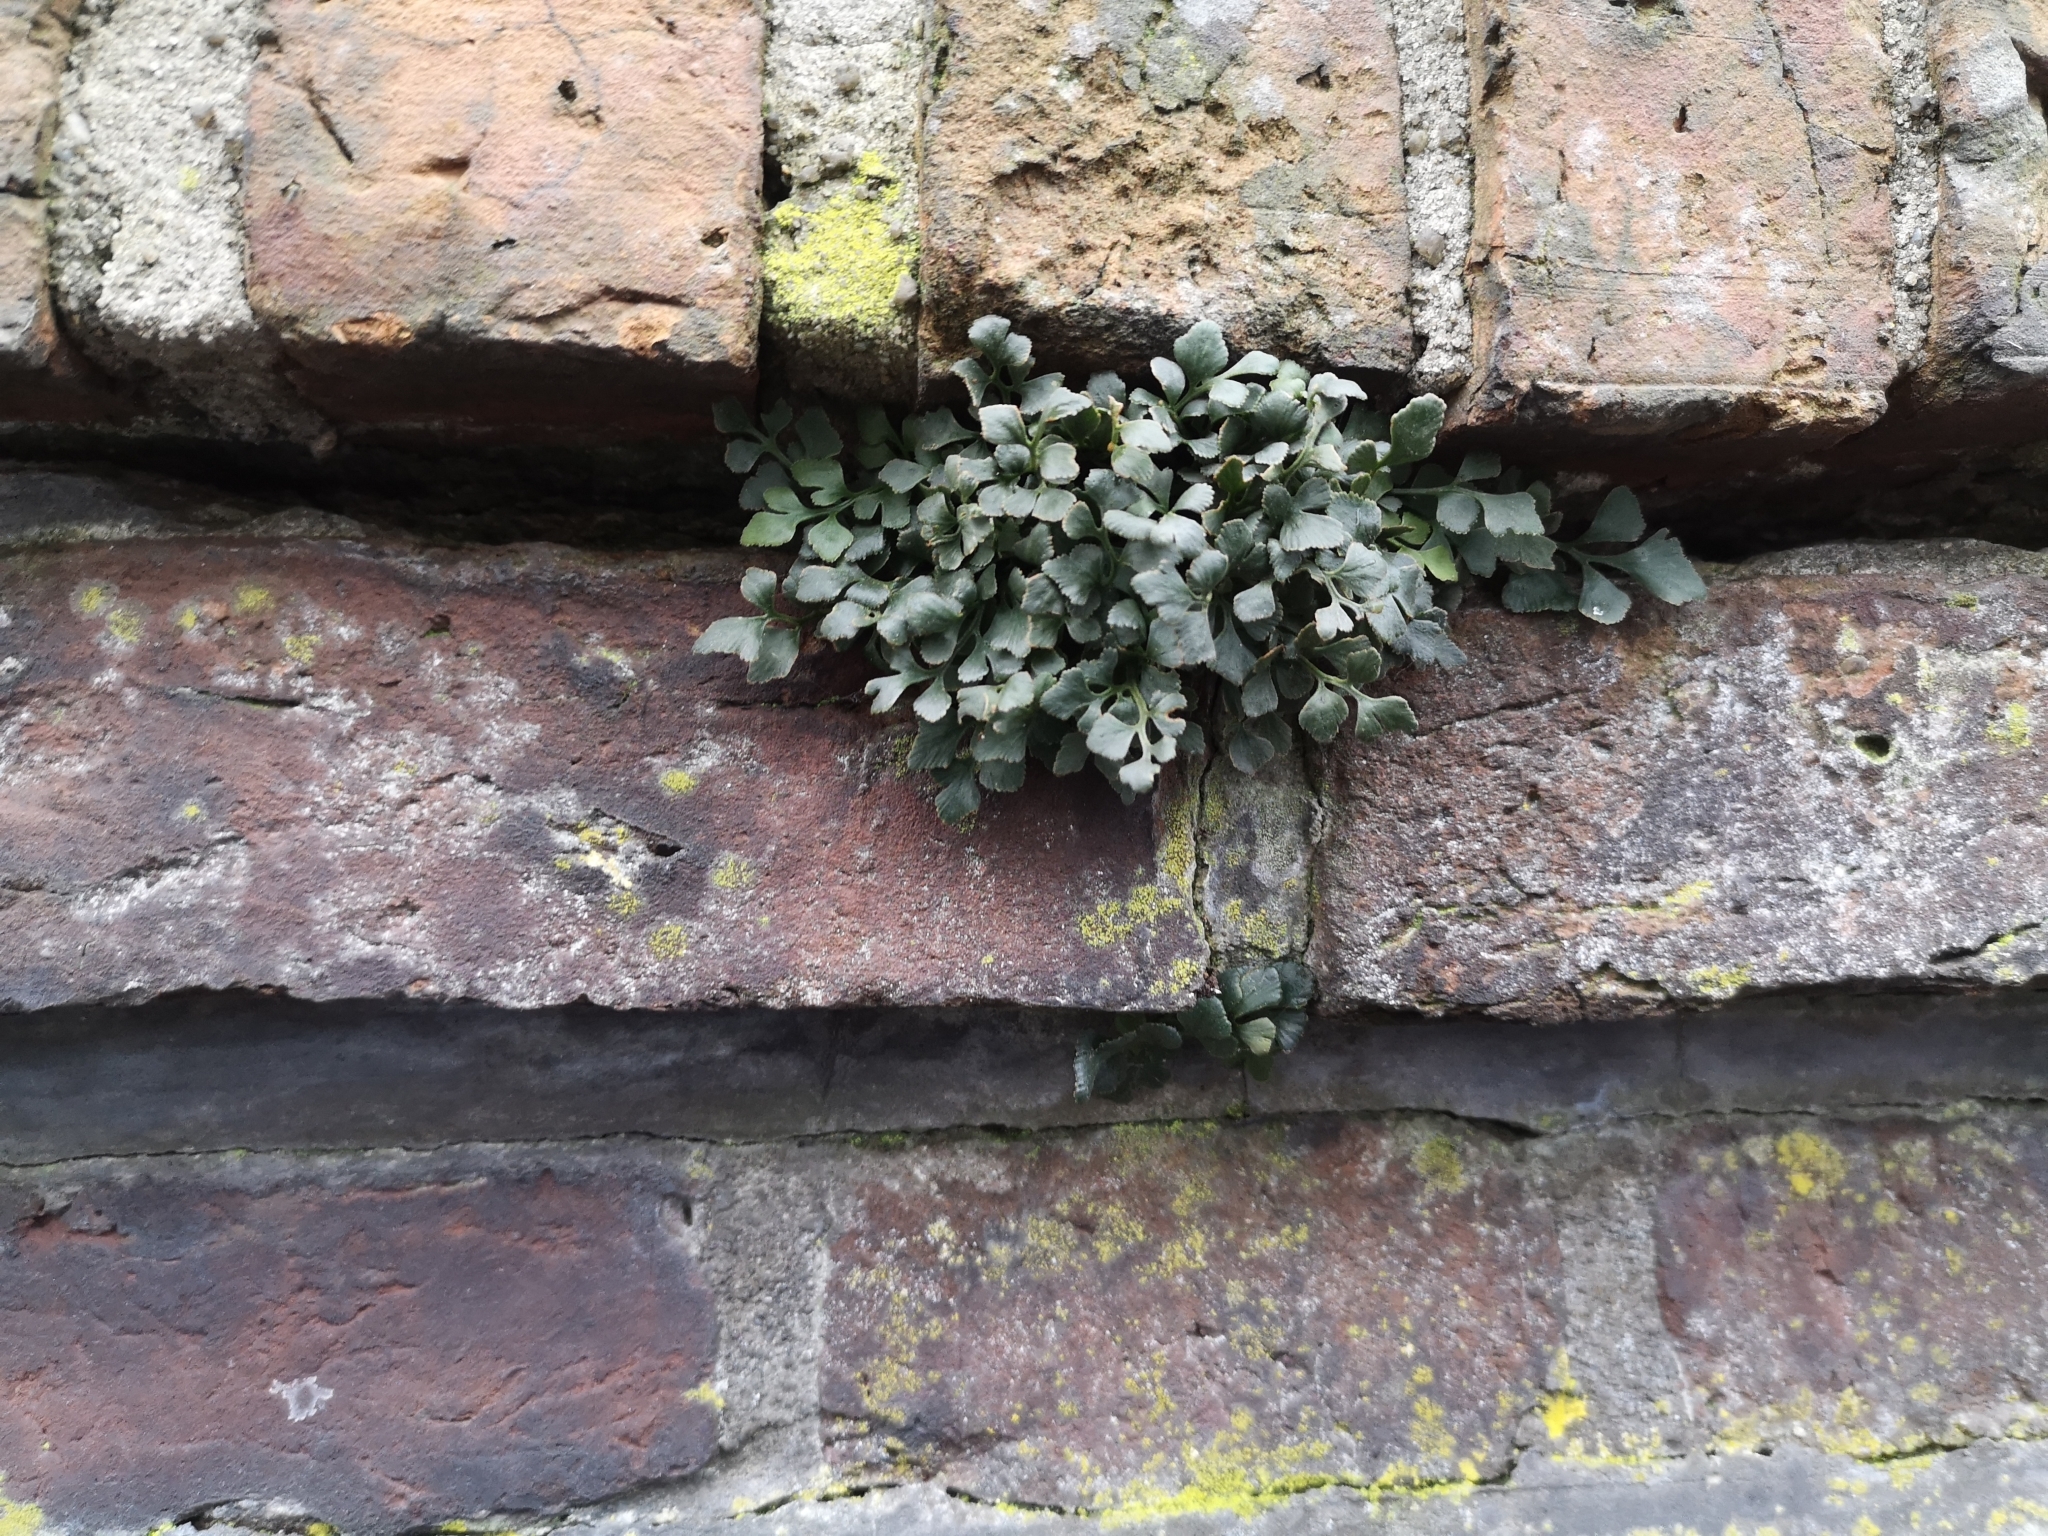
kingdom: Plantae
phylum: Tracheophyta
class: Polypodiopsida
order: Polypodiales
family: Aspleniaceae
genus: Asplenium
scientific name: Asplenium ruta-muraria
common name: Wall-rue
